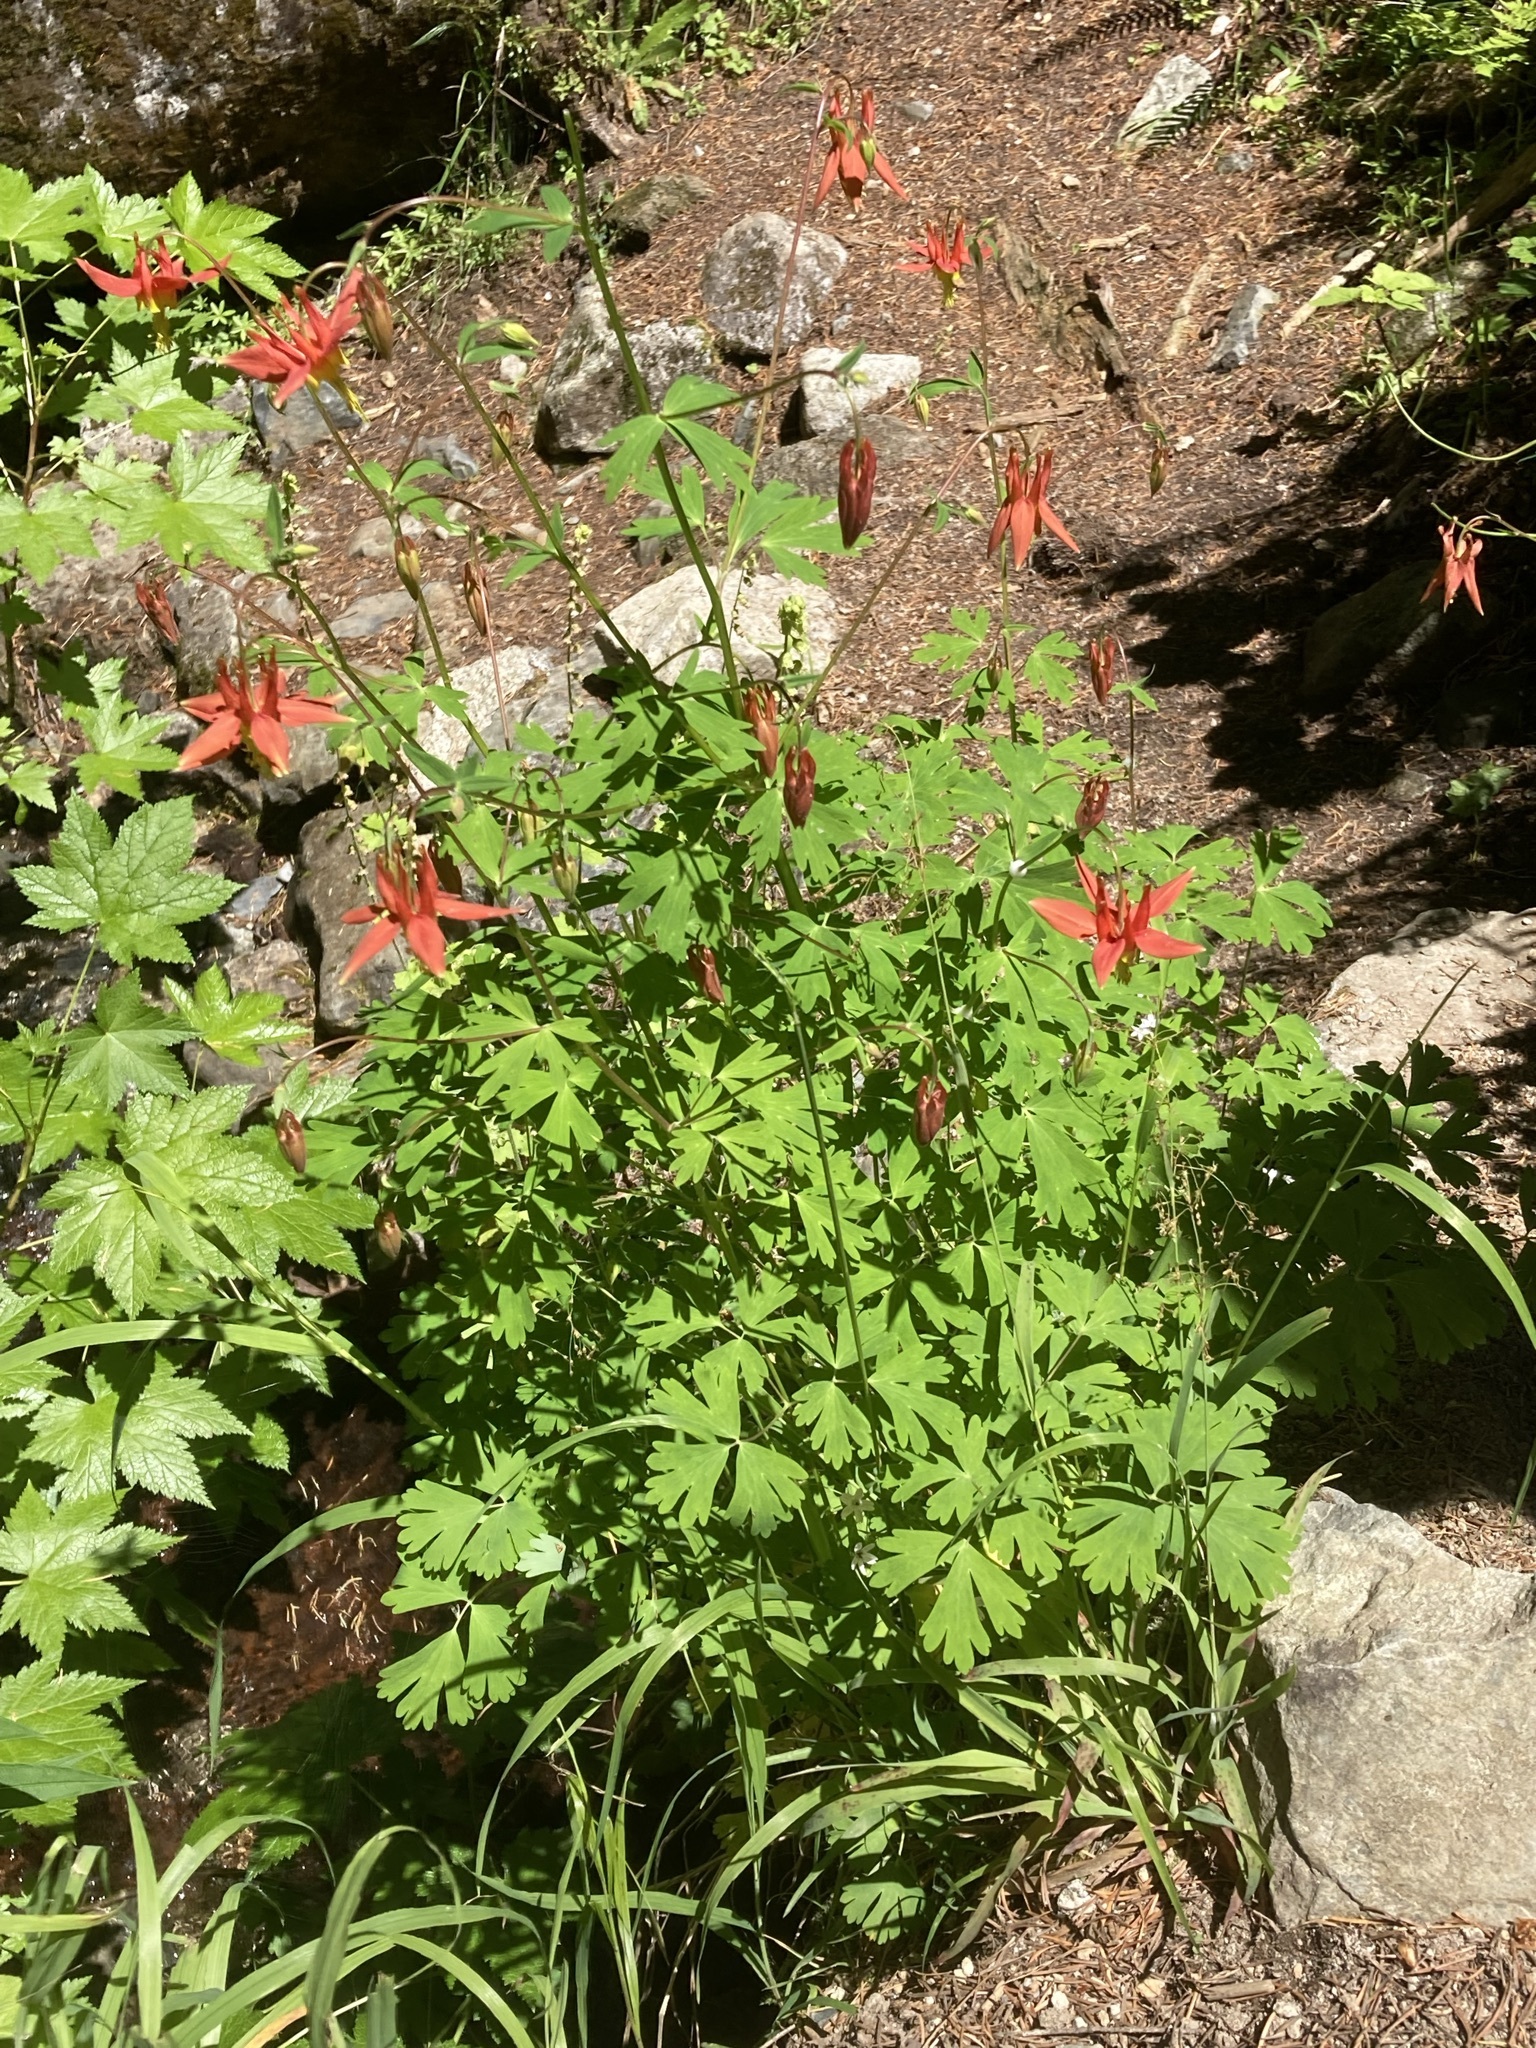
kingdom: Plantae
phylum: Tracheophyta
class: Magnoliopsida
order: Ranunculales
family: Ranunculaceae
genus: Aquilegia
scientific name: Aquilegia formosa
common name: Sitka columbine
